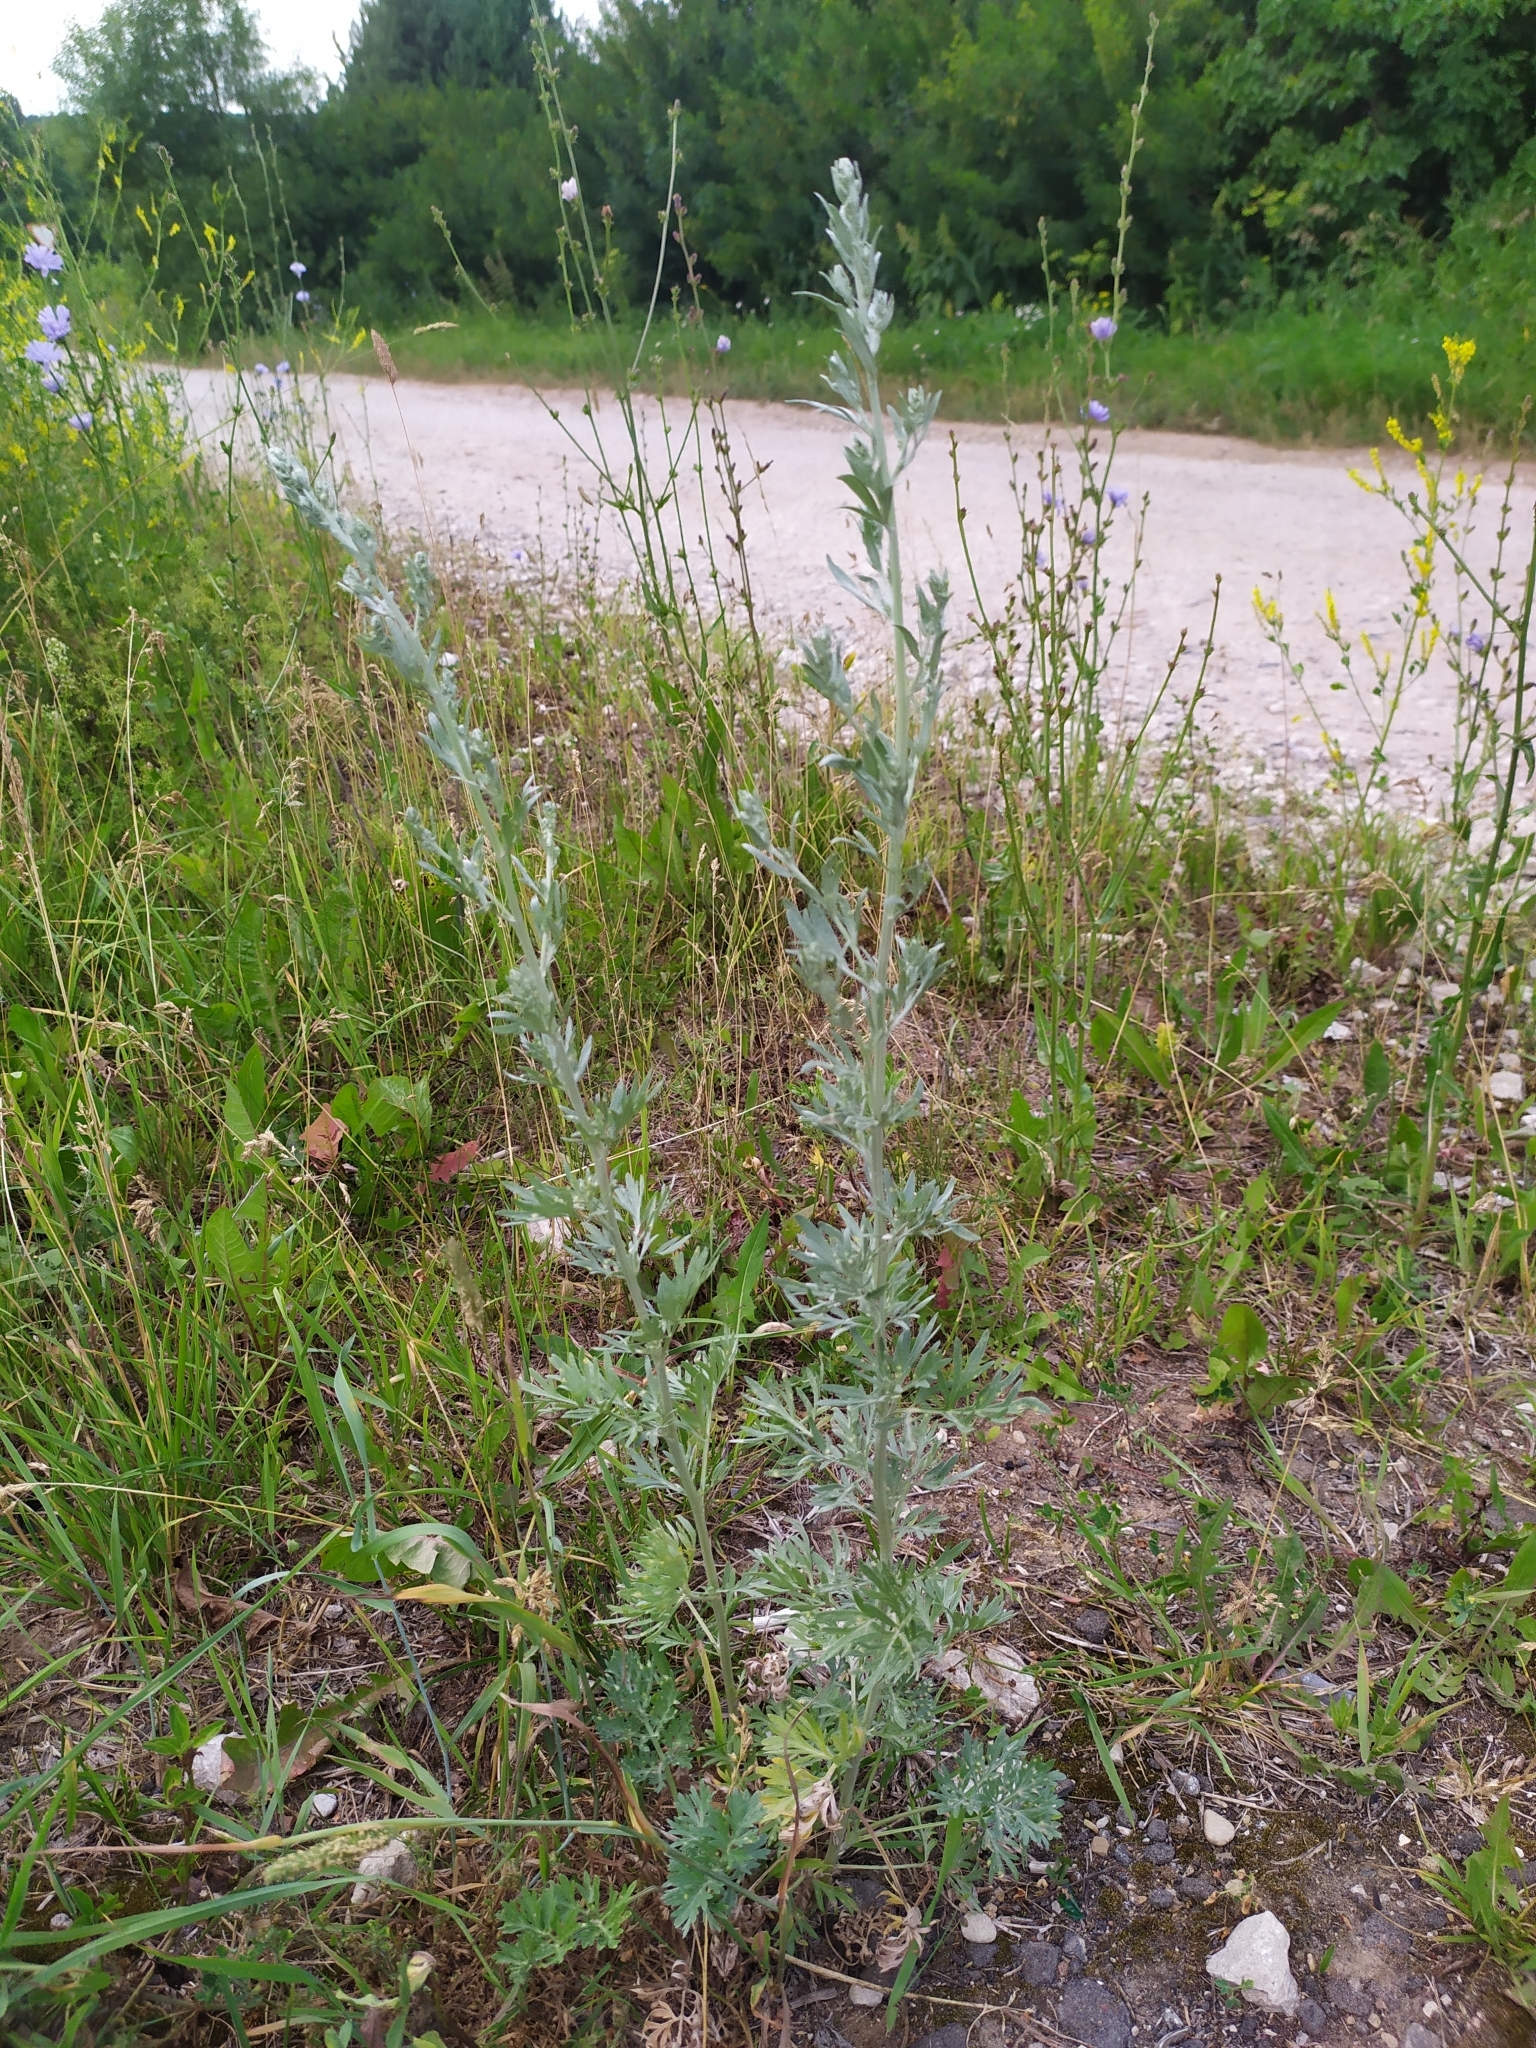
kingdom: Plantae
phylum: Tracheophyta
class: Magnoliopsida
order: Asterales
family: Asteraceae
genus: Artemisia
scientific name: Artemisia absinthium
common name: Wormwood
